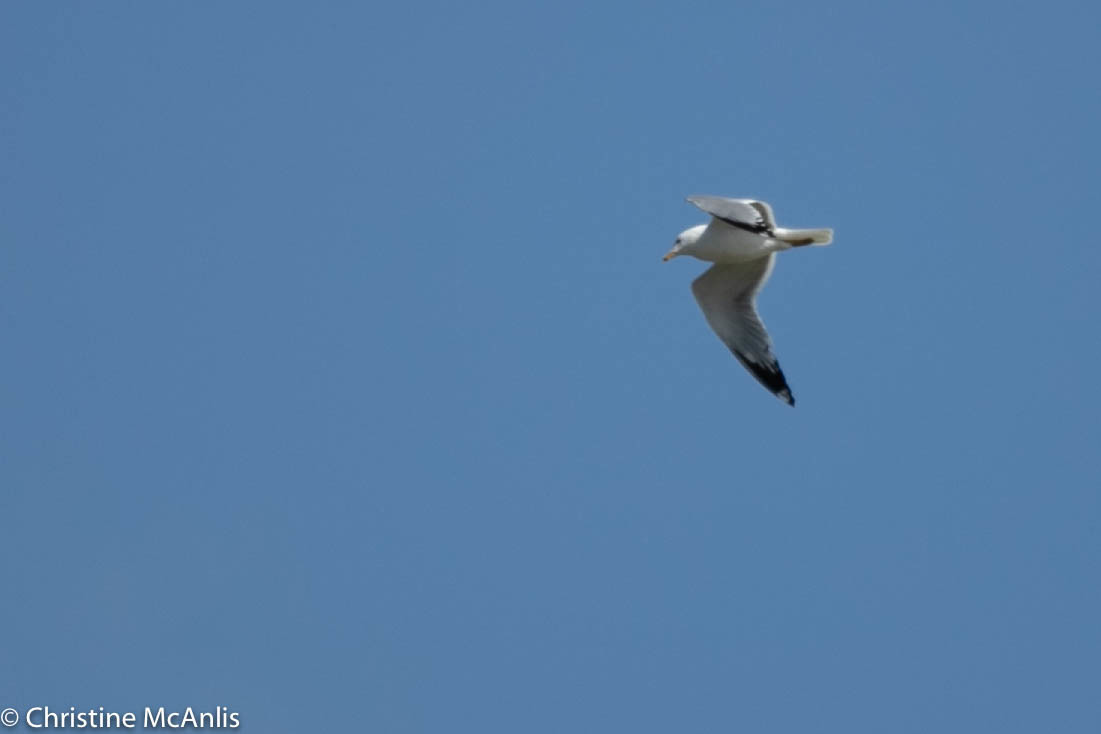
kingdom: Animalia
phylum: Chordata
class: Aves
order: Charadriiformes
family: Laridae
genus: Larus
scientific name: Larus delawarensis
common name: Ring-billed gull
